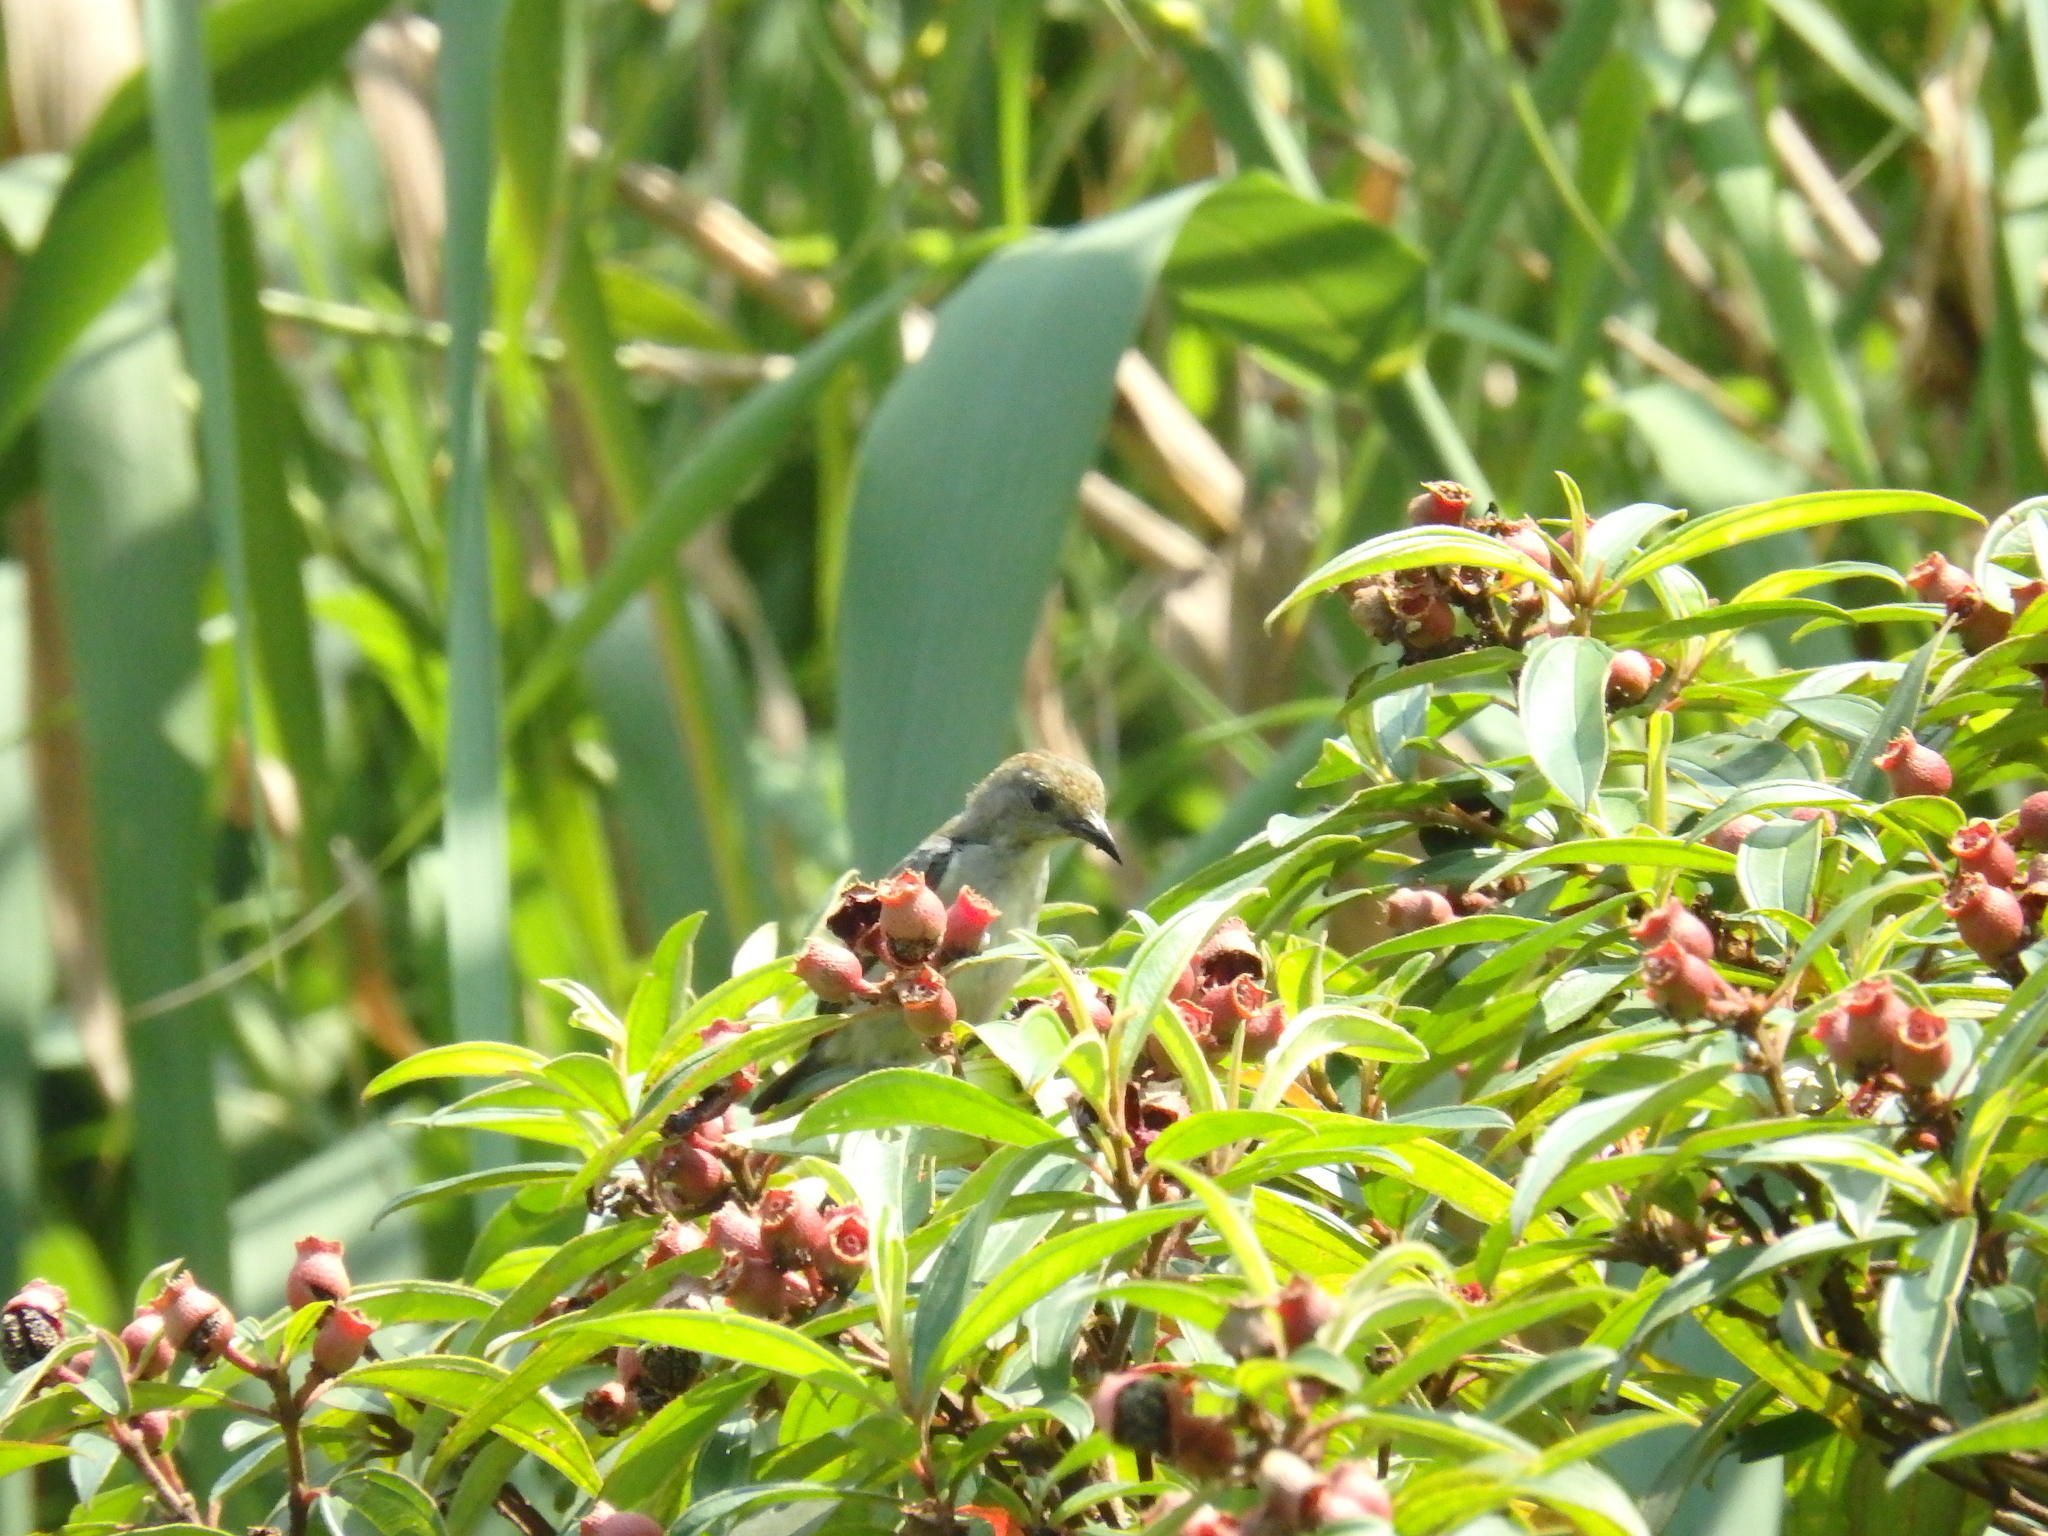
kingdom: Animalia
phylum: Chordata
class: Aves
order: Passeriformes
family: Dicaeidae
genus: Dicaeum
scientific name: Dicaeum cruentatum
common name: Scarlet-backed flowerpecker
